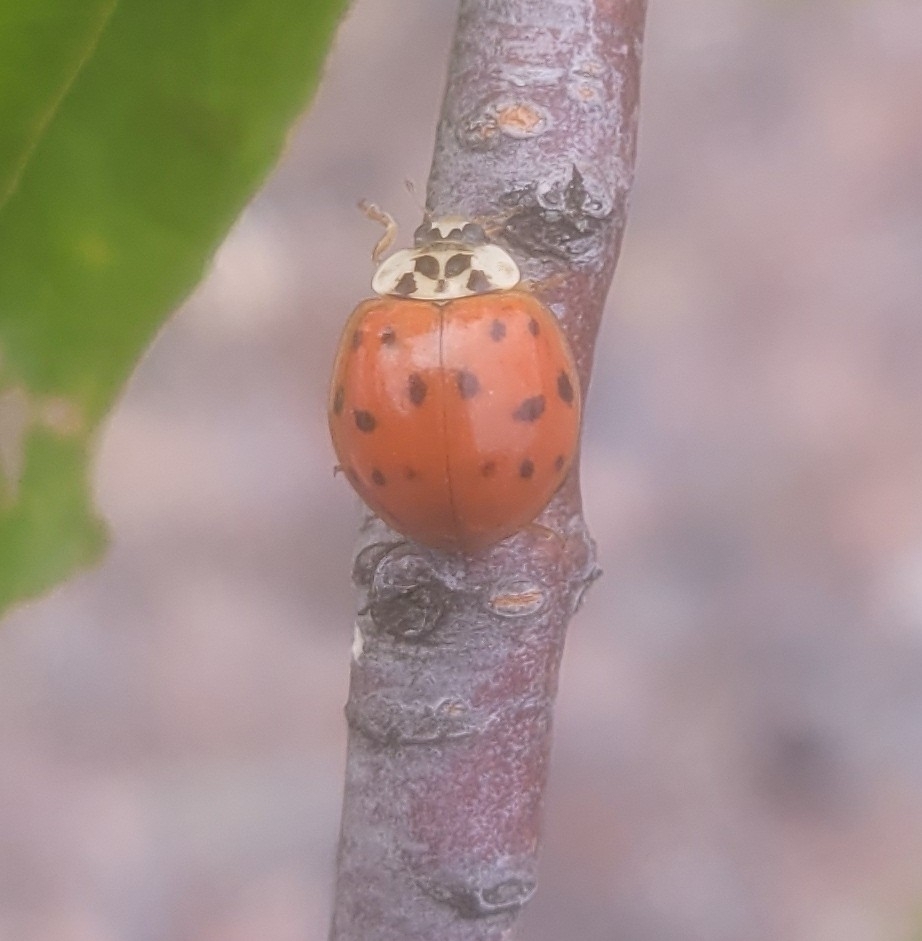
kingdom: Animalia
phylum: Arthropoda
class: Insecta
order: Coleoptera
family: Coccinellidae
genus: Harmonia
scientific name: Harmonia axyridis
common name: Harlequin ladybird
